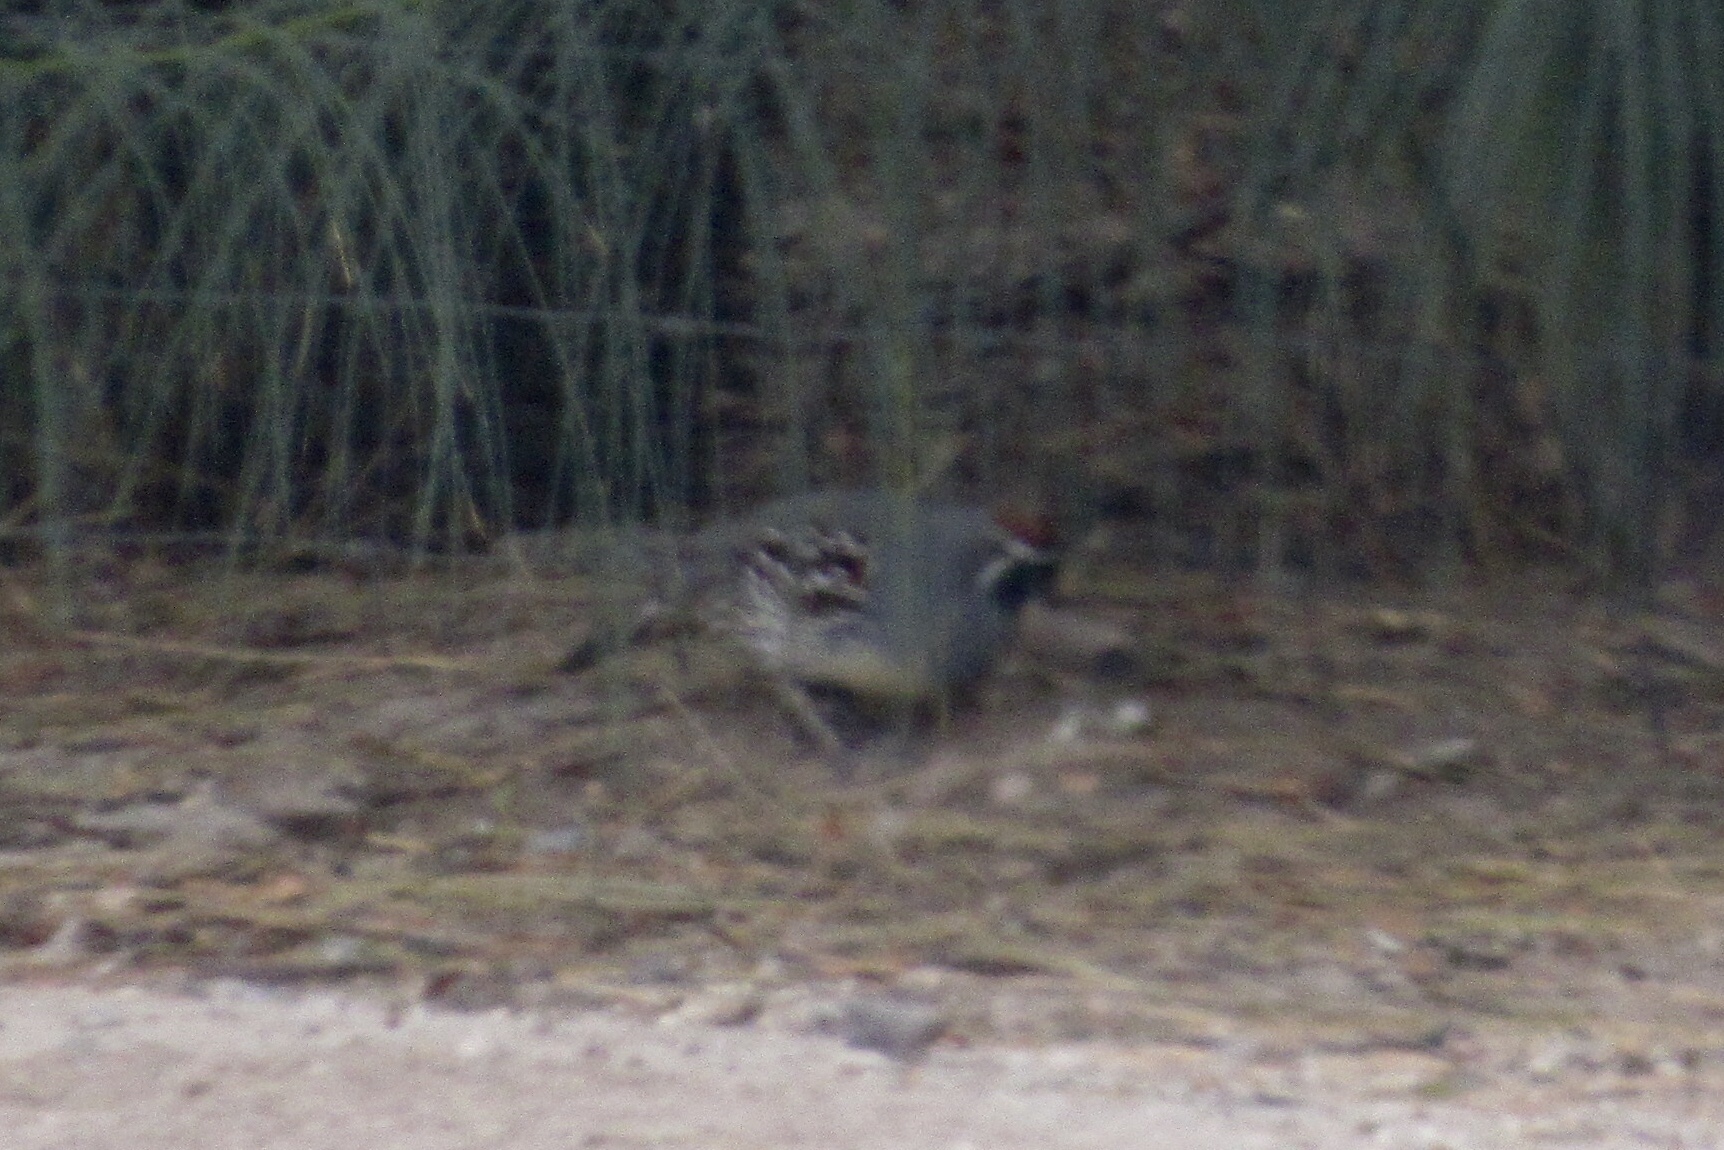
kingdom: Animalia
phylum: Chordata
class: Aves
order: Galliformes
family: Odontophoridae
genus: Callipepla
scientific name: Callipepla gambelii
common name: Gambel's quail
